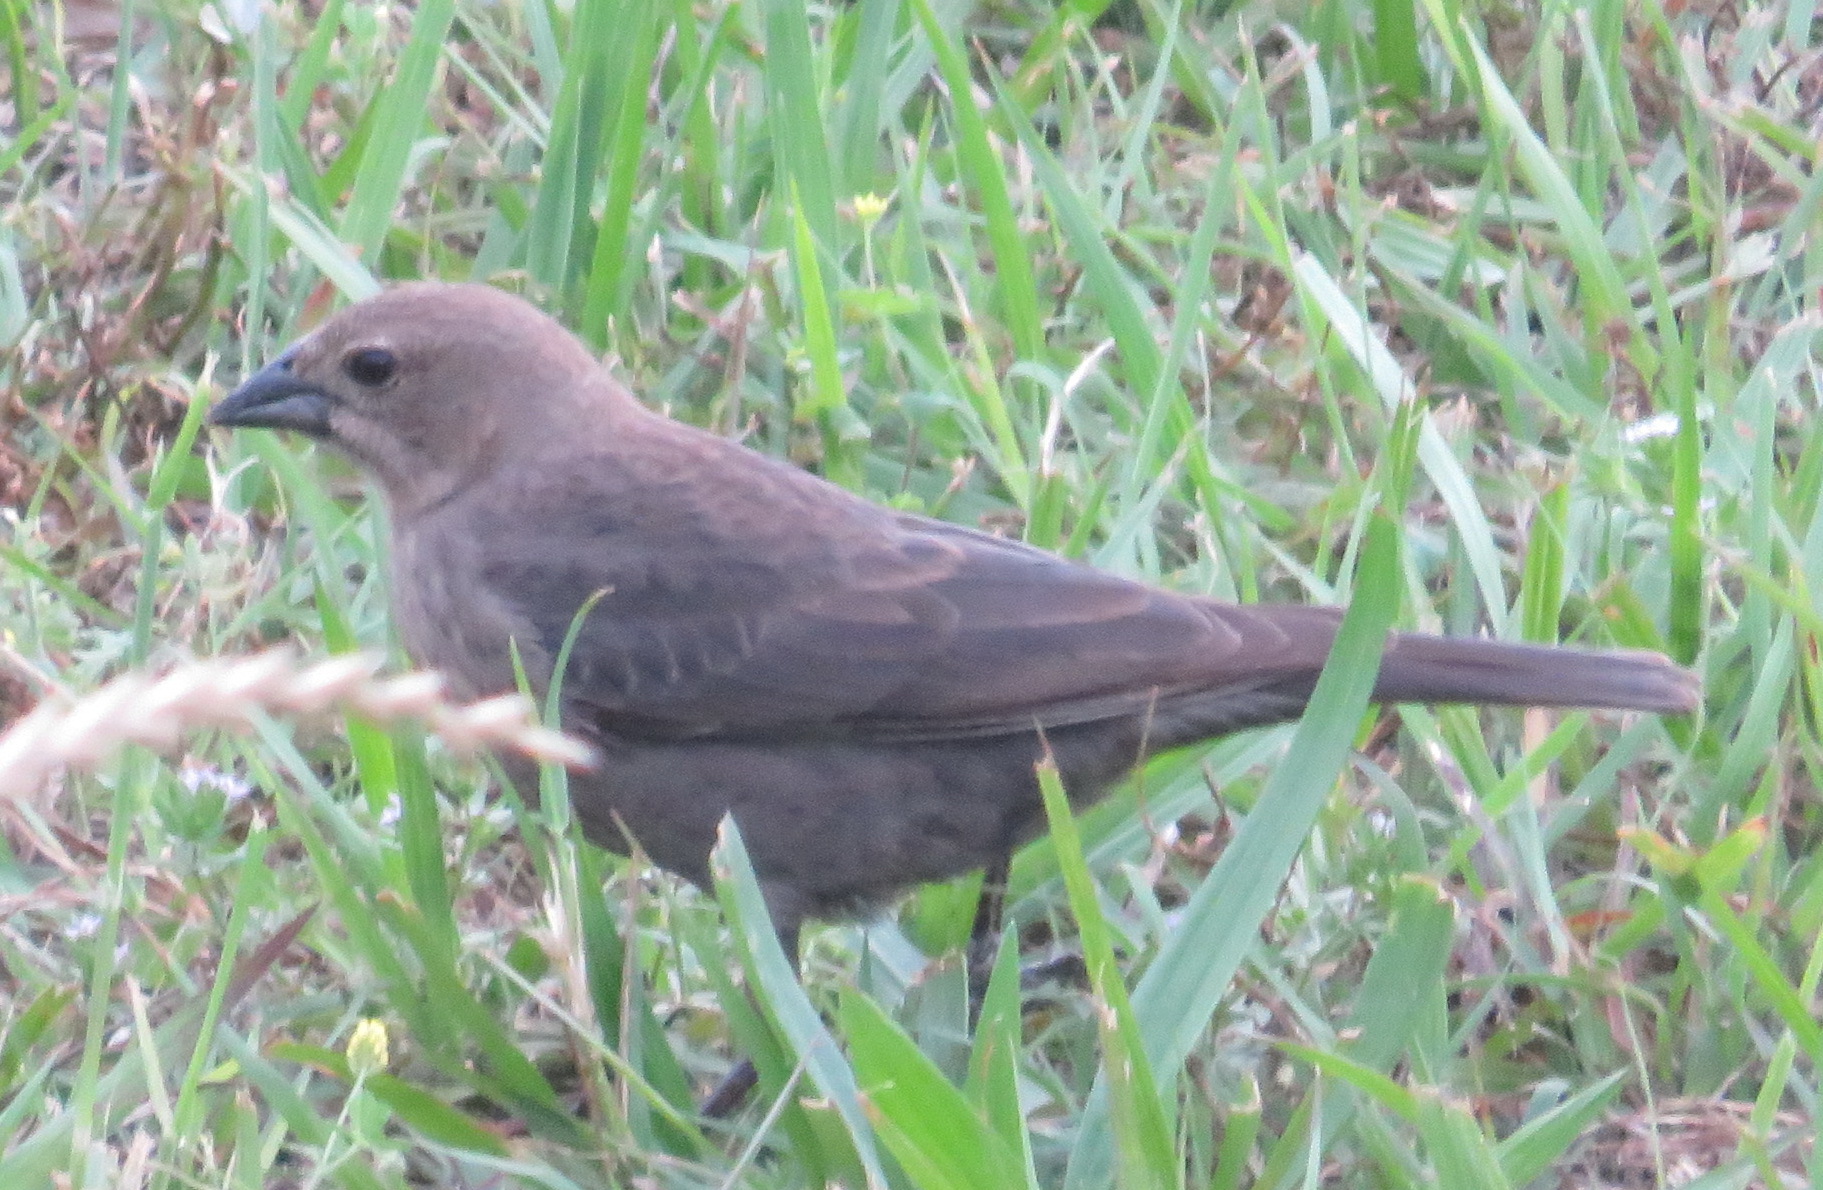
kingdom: Animalia
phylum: Chordata
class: Aves
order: Passeriformes
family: Icteridae
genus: Molothrus
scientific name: Molothrus ater
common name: Brown-headed cowbird
